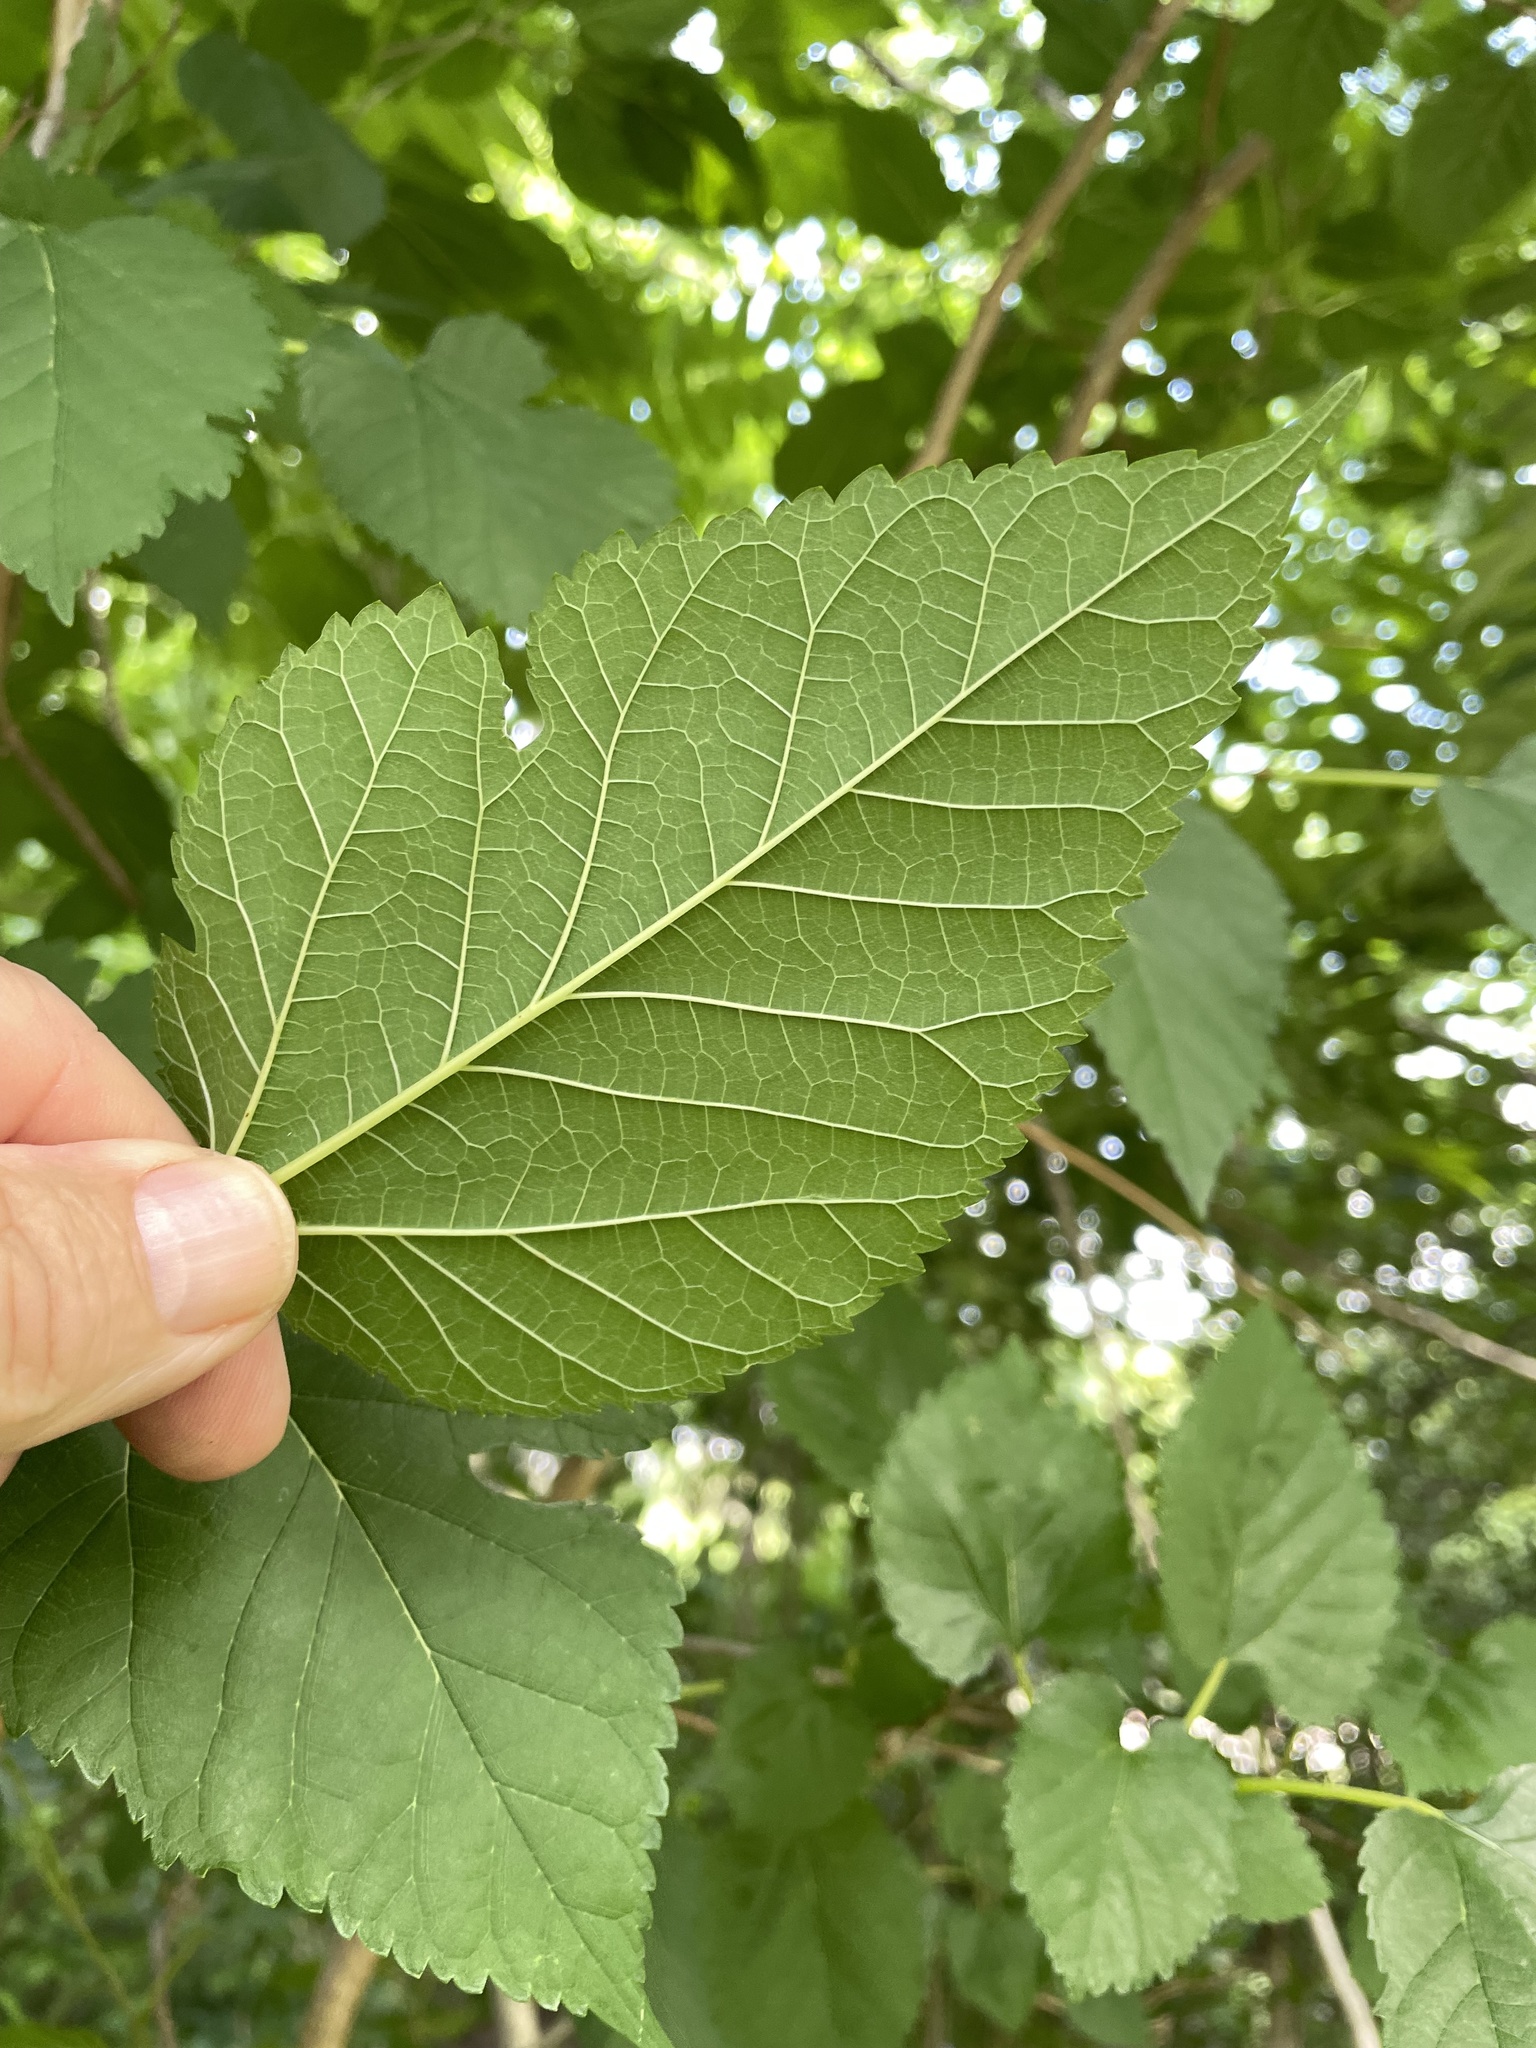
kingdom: Plantae
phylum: Tracheophyta
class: Magnoliopsida
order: Rosales
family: Moraceae
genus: Morus
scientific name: Morus alba
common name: White mulberry
